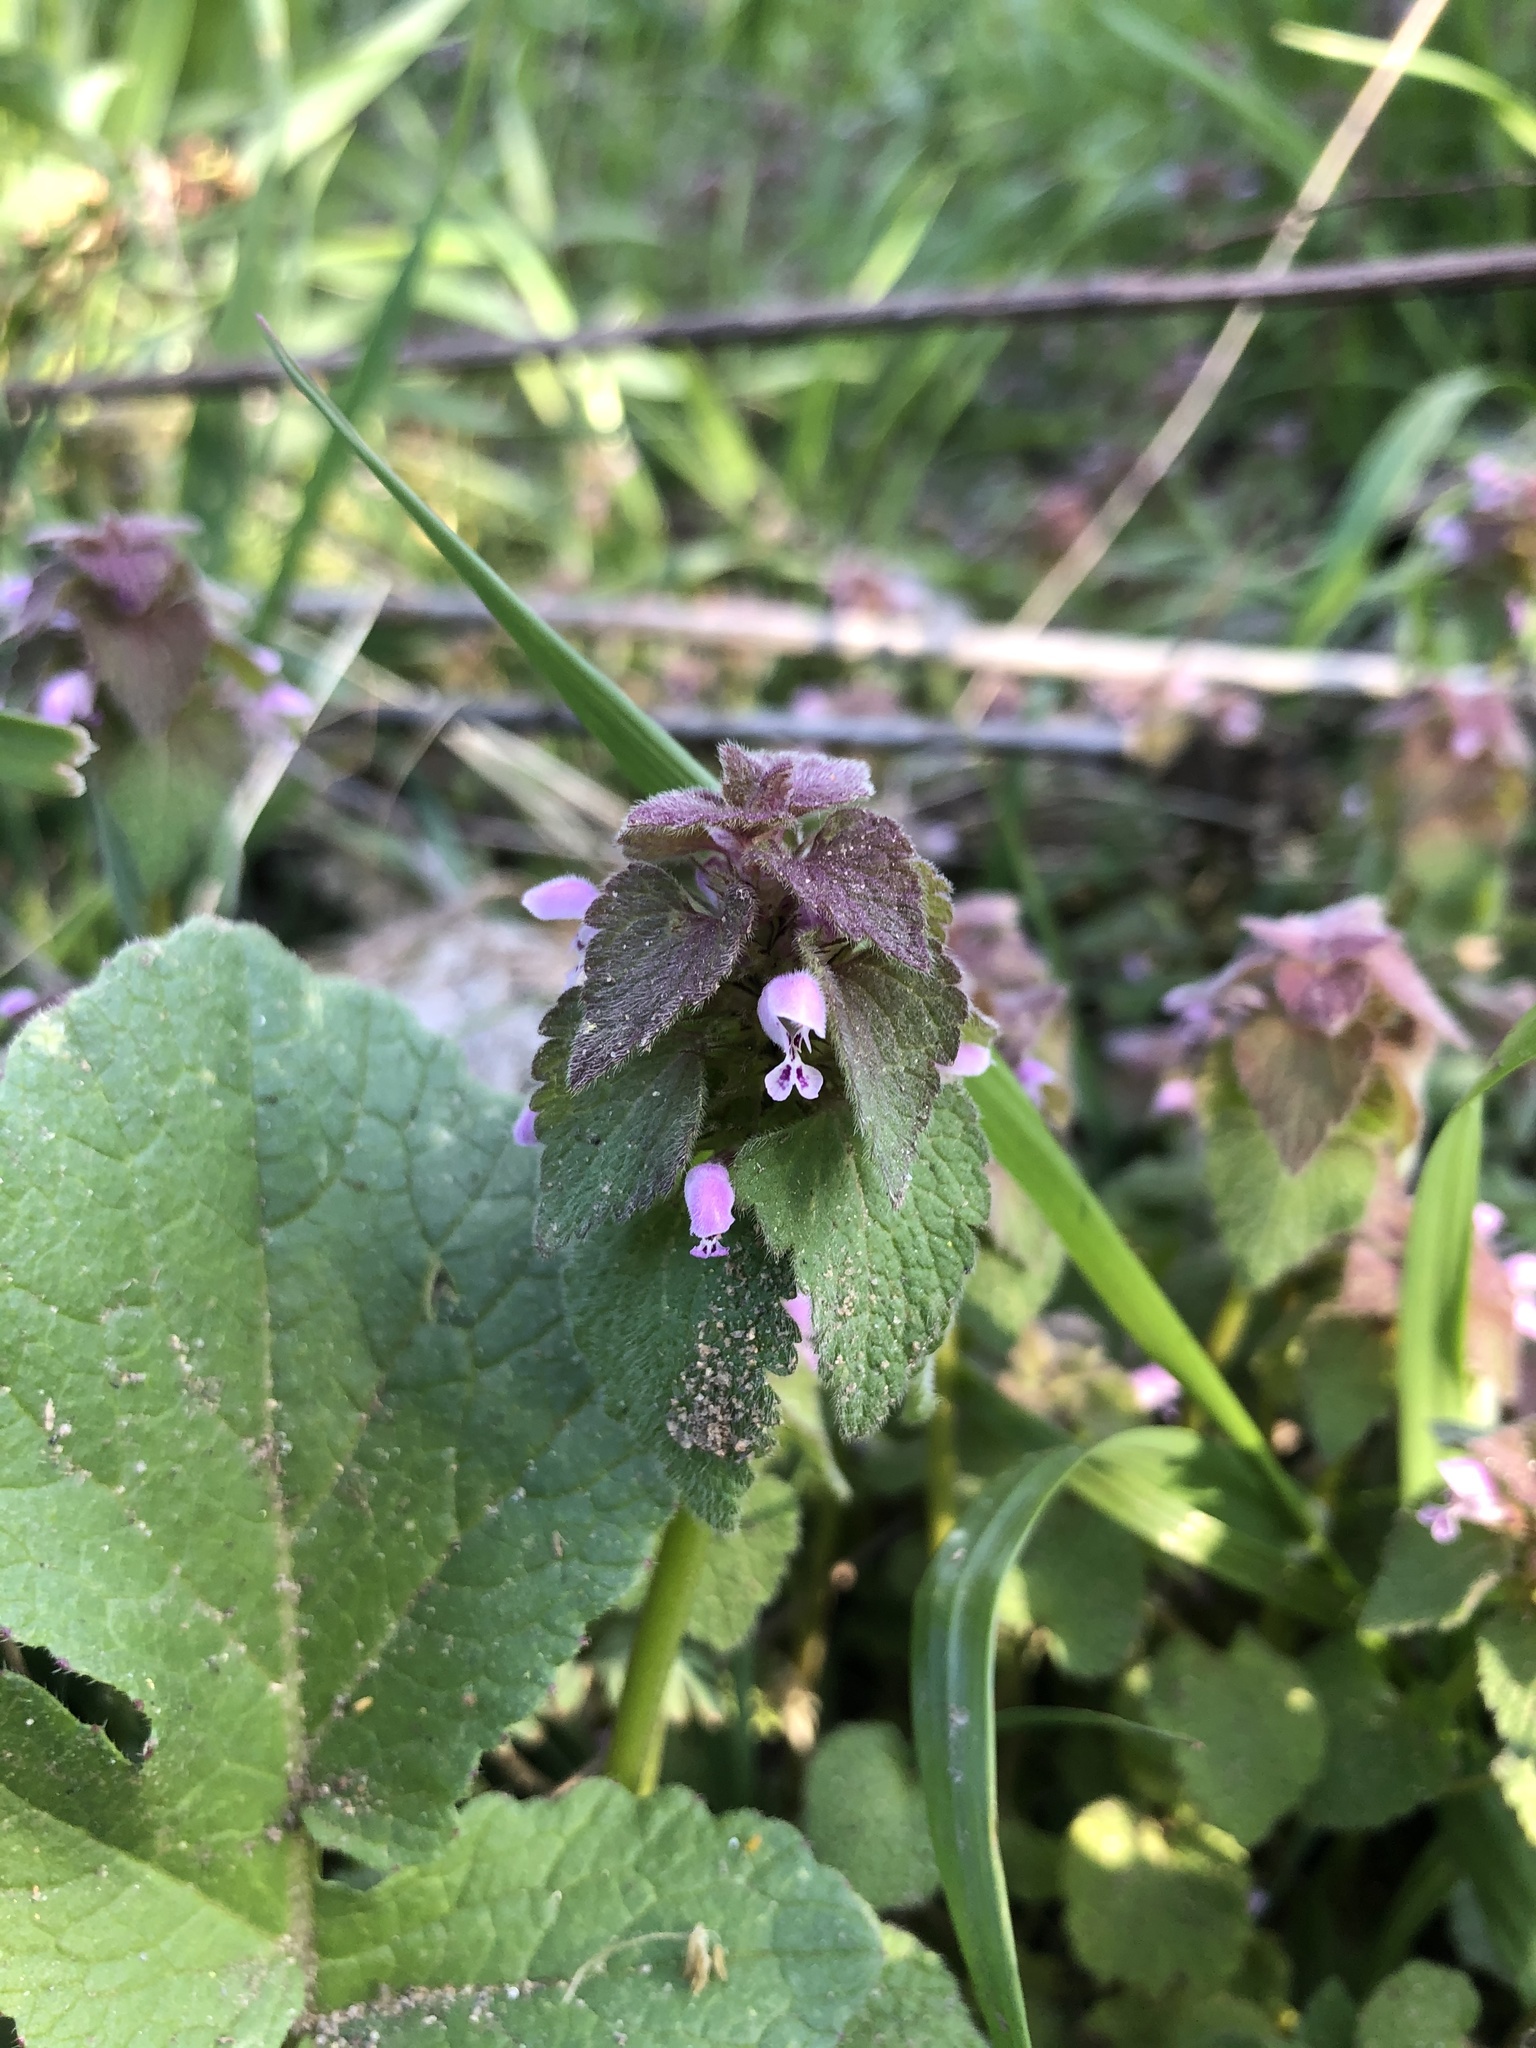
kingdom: Plantae
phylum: Tracheophyta
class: Magnoliopsida
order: Lamiales
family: Lamiaceae
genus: Lamium
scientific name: Lamium purpureum
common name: Red dead-nettle
